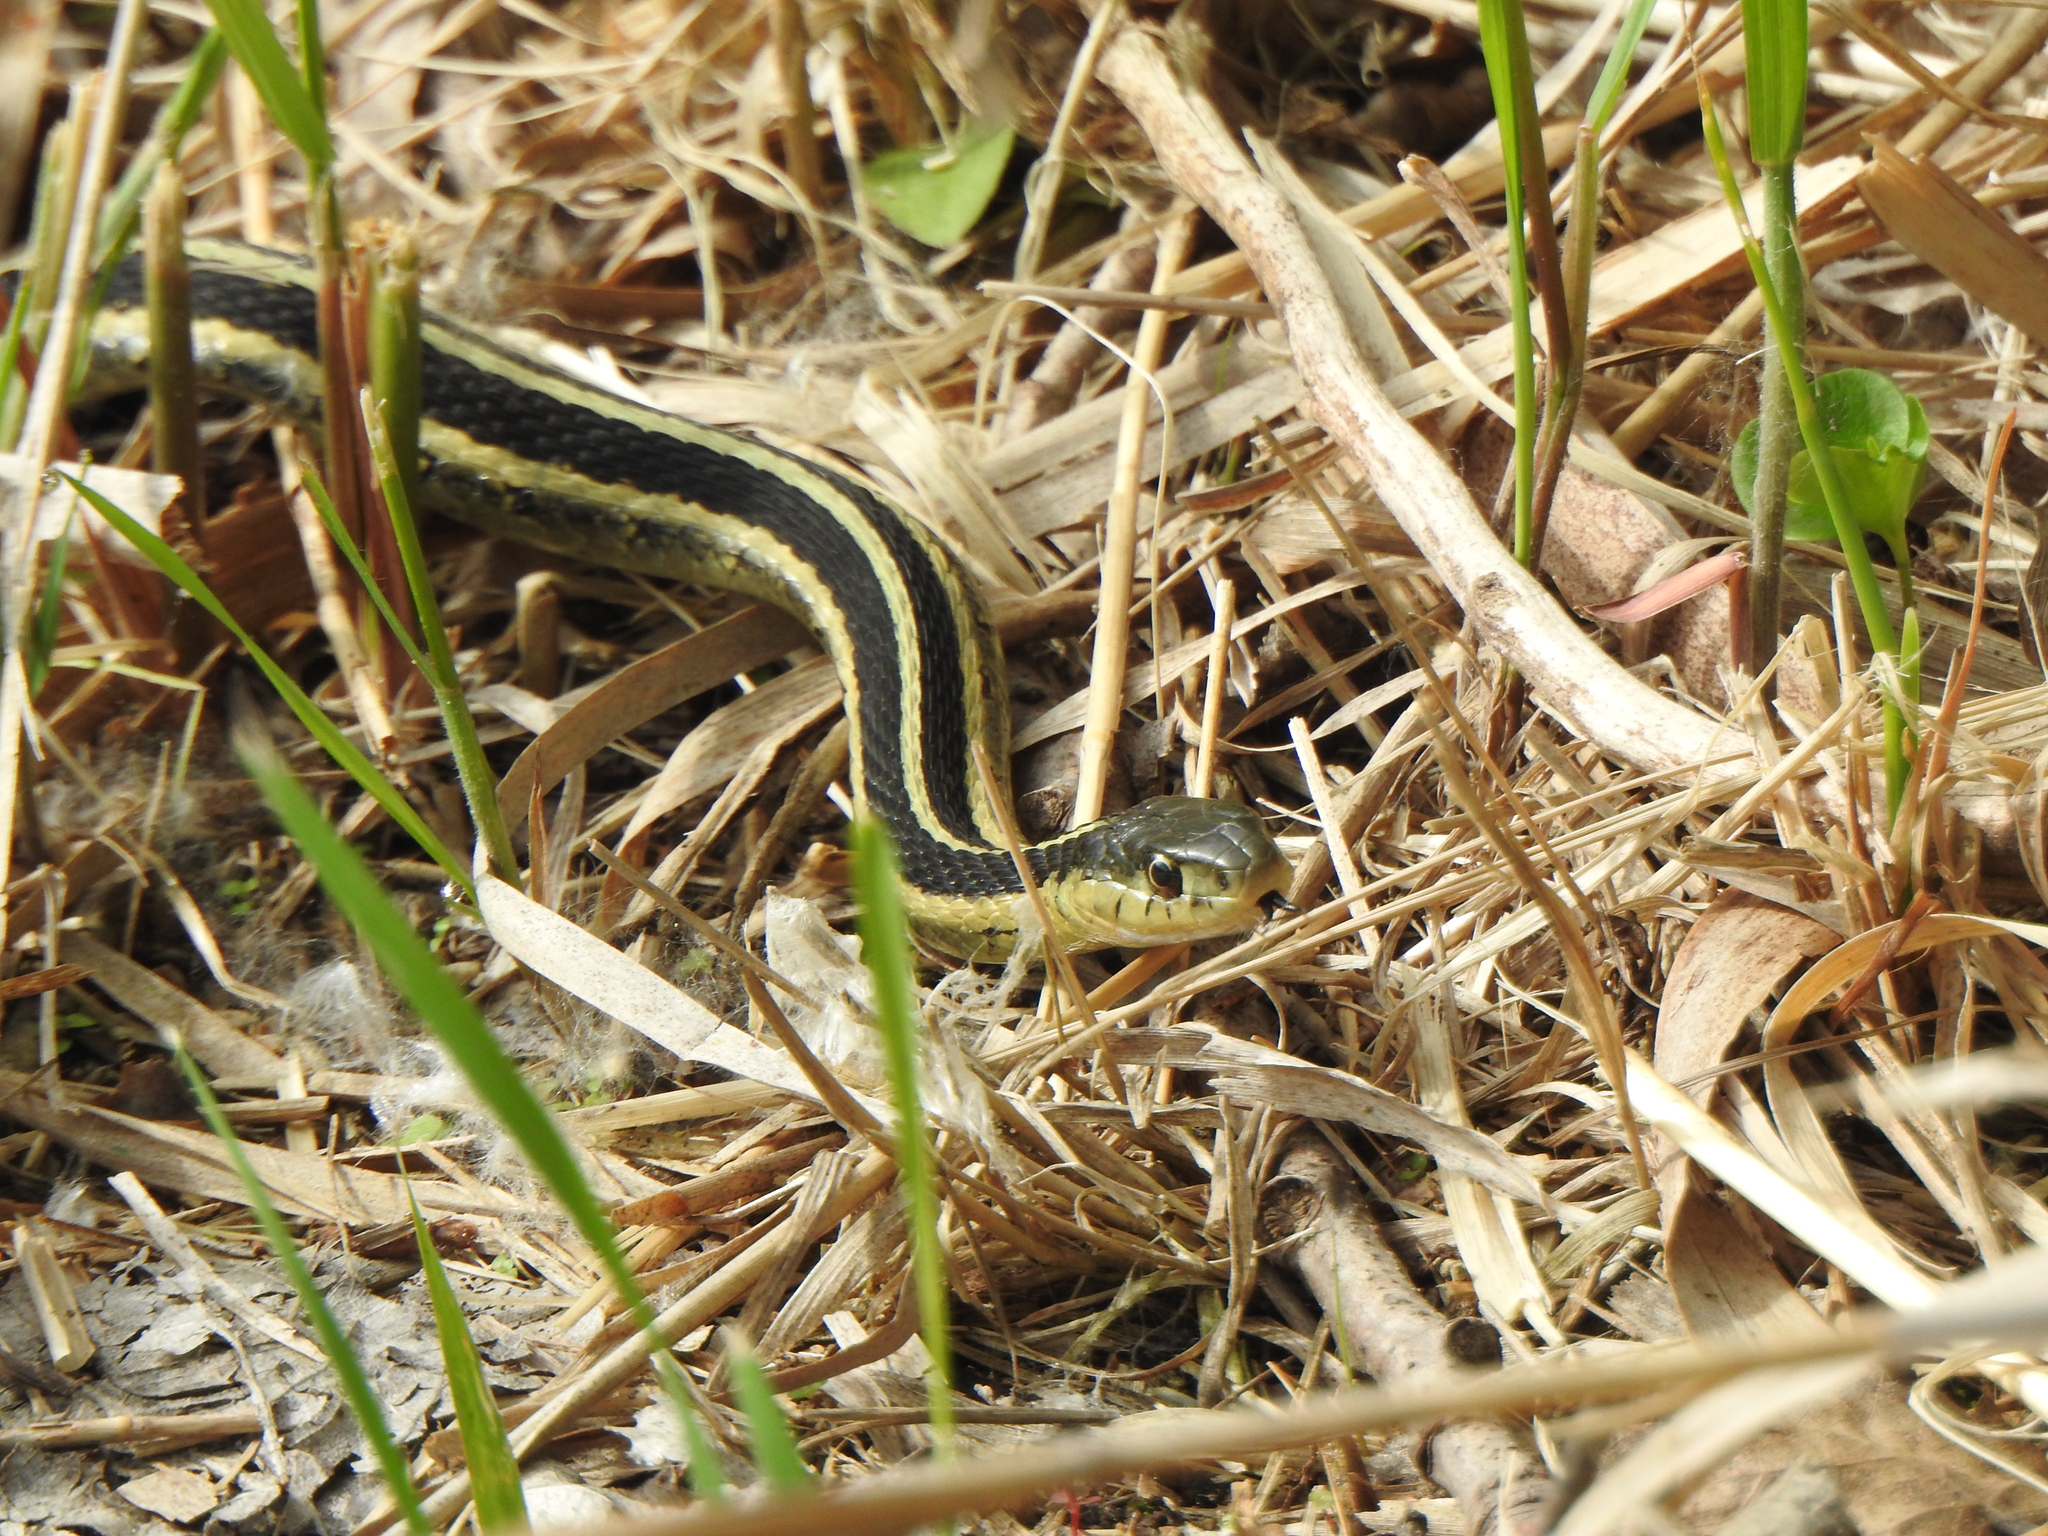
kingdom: Animalia
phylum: Chordata
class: Squamata
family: Colubridae
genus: Thamnophis
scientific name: Thamnophis sirtalis
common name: Common garter snake
